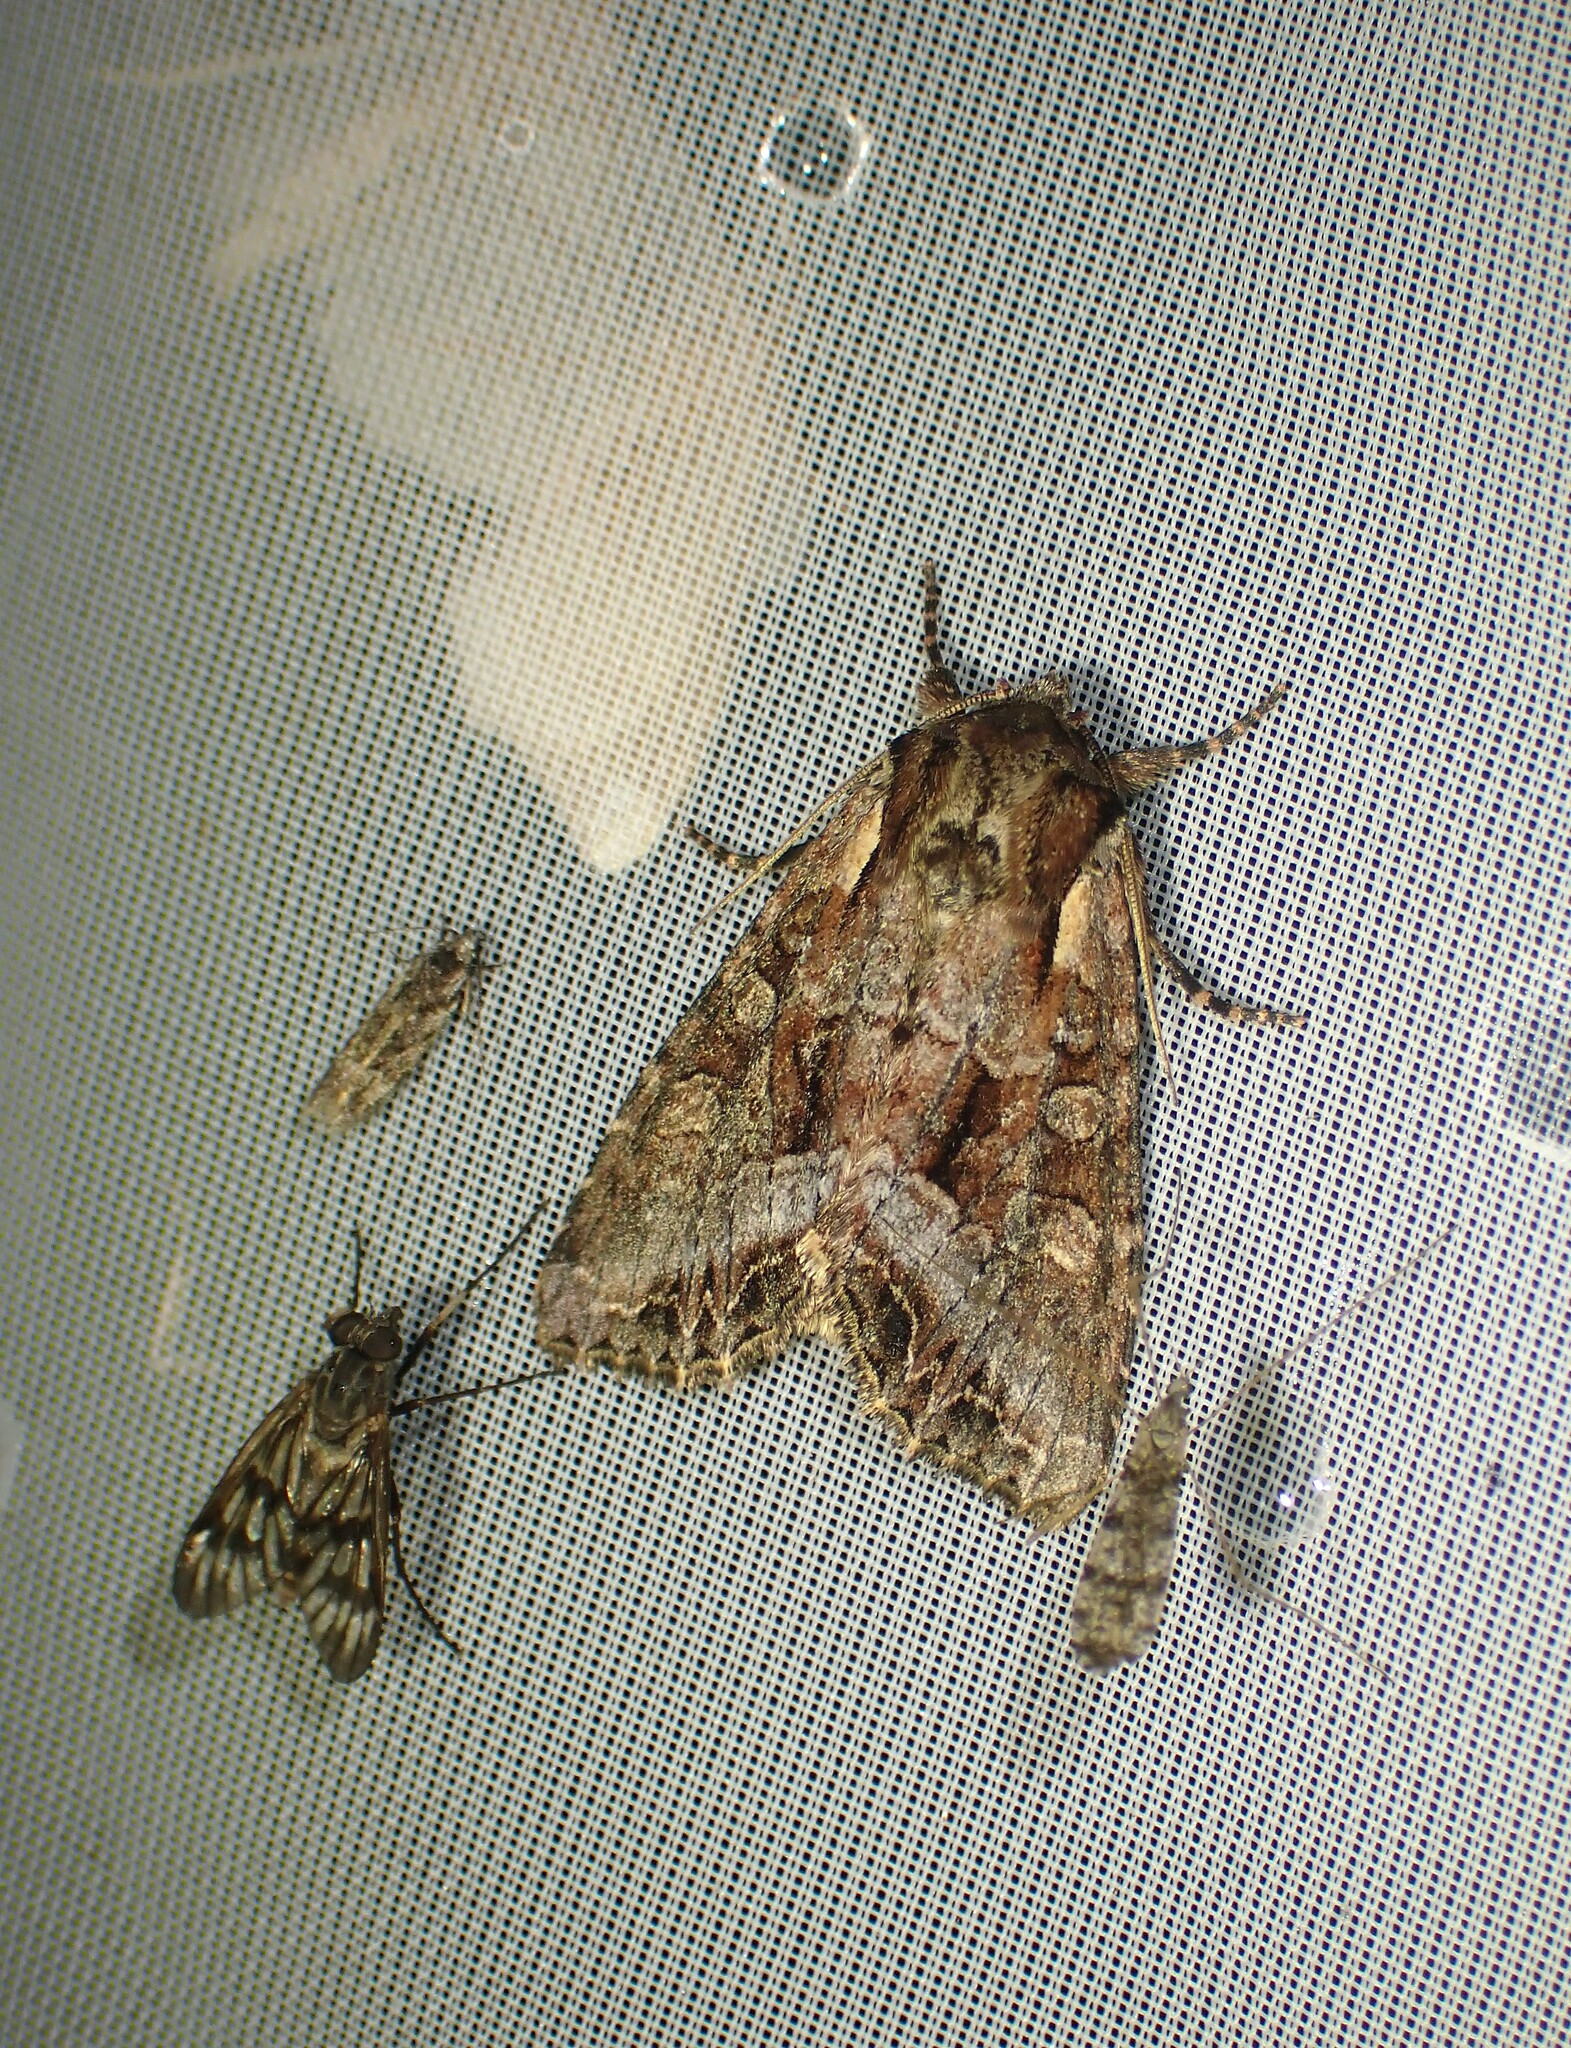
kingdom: Animalia
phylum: Arthropoda
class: Insecta
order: Lepidoptera
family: Noctuidae
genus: Lacanobia
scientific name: Lacanobia grandis
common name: Grand arches moth
